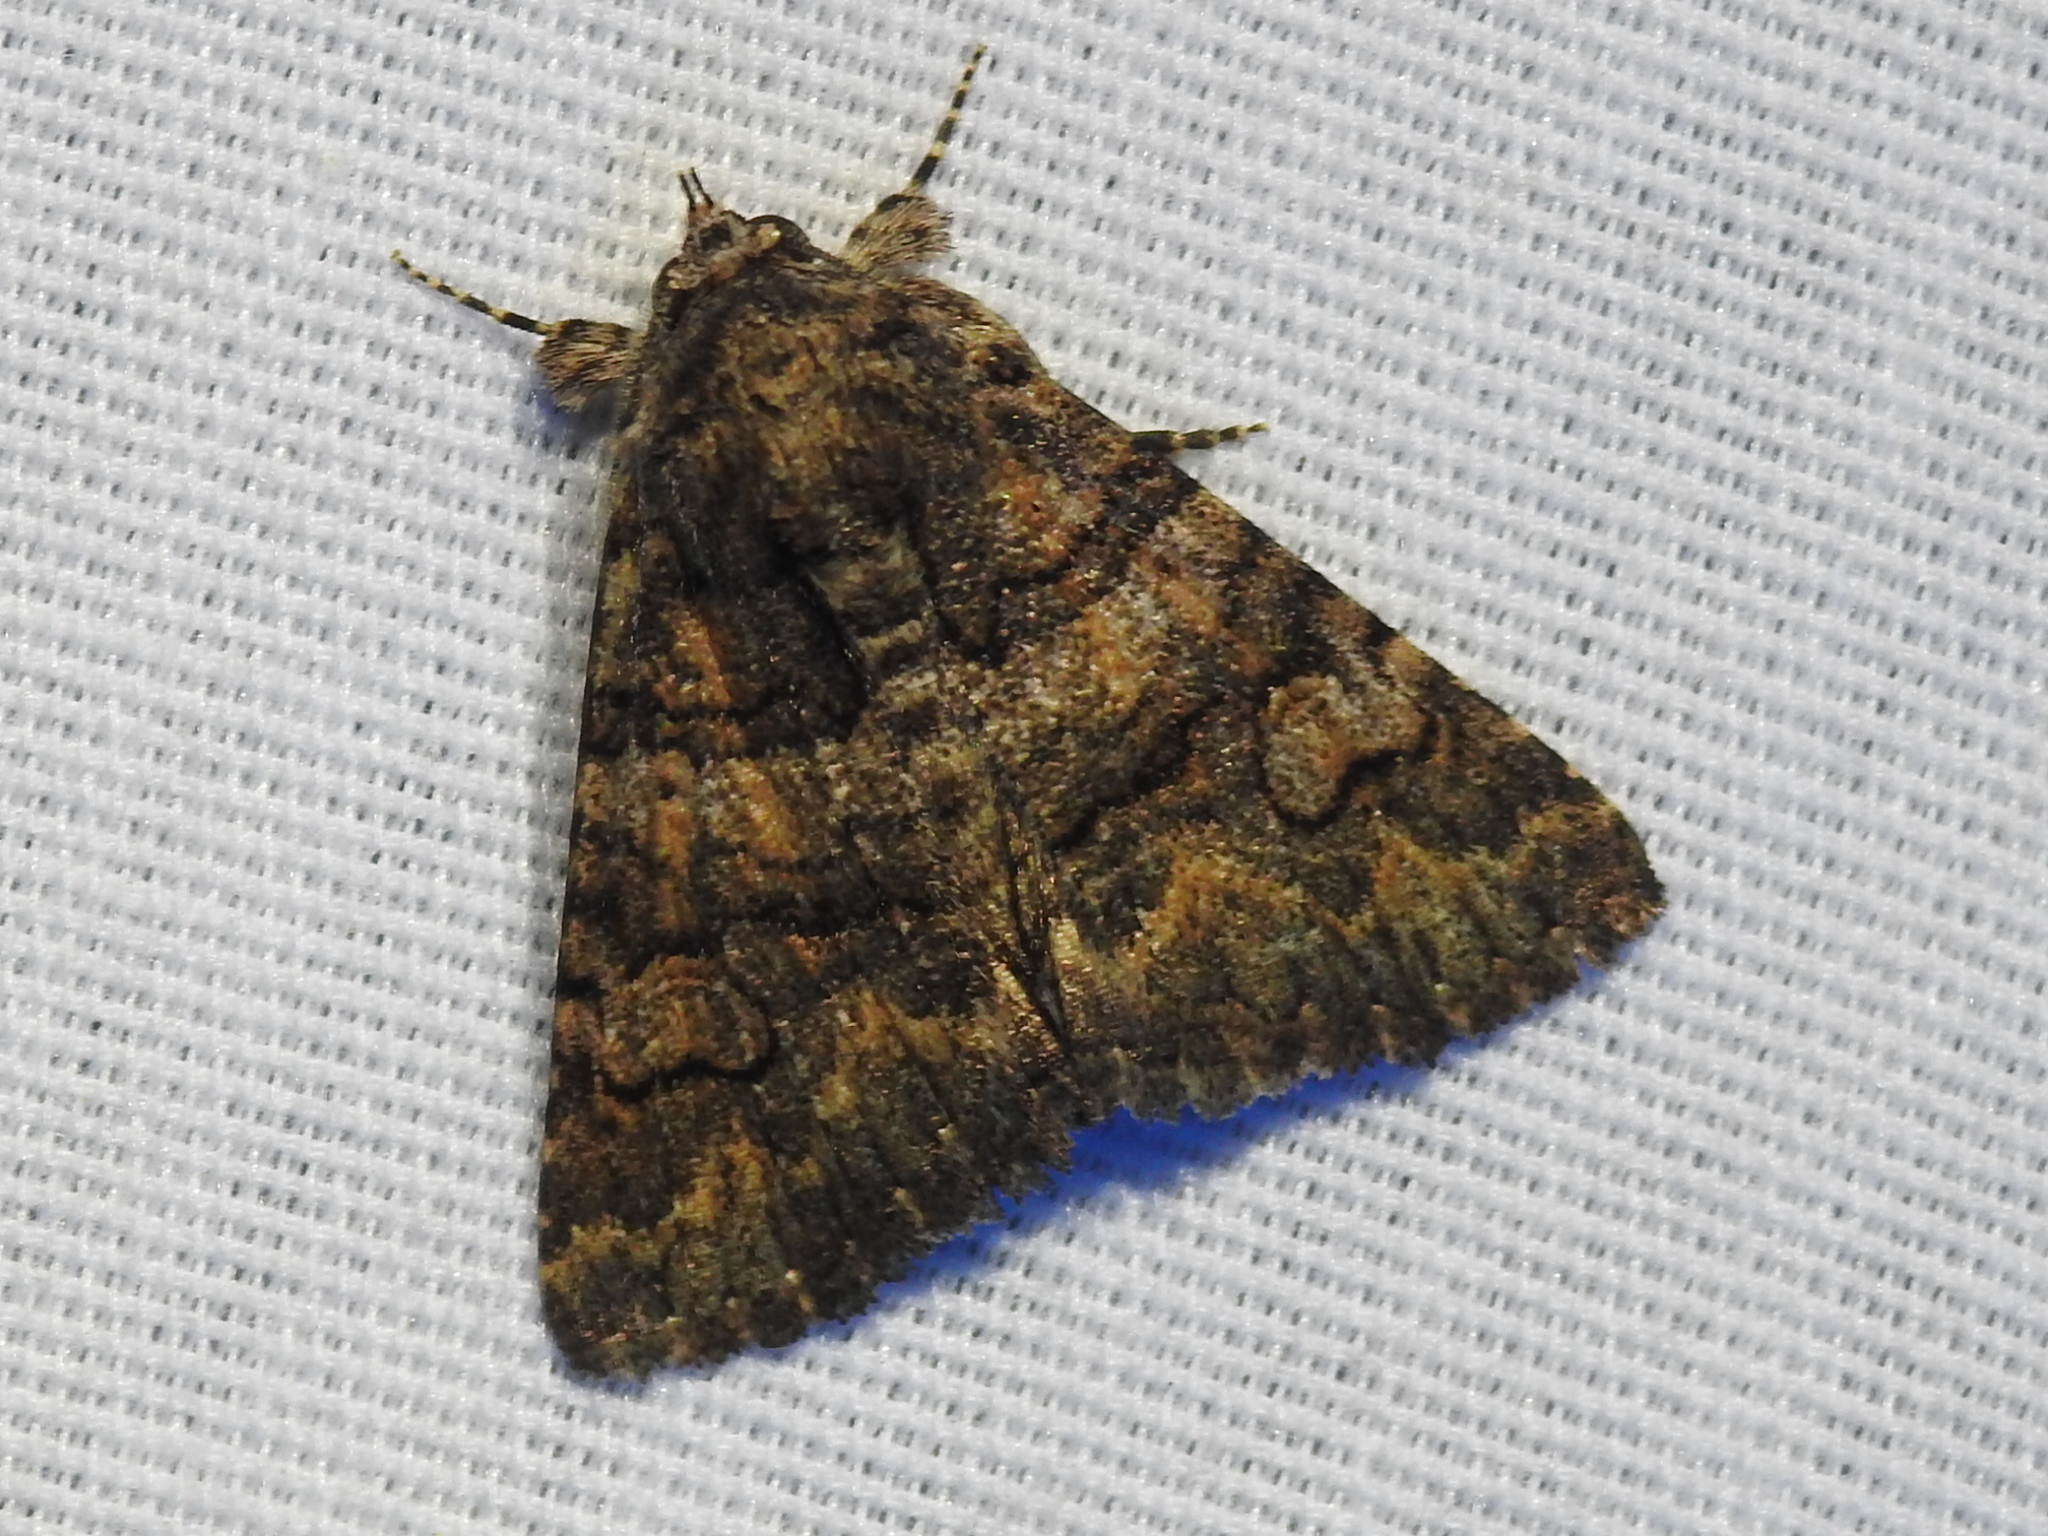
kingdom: Animalia
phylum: Arthropoda
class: Insecta
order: Lepidoptera
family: Erebidae
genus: Elousa
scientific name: Elousa mima
